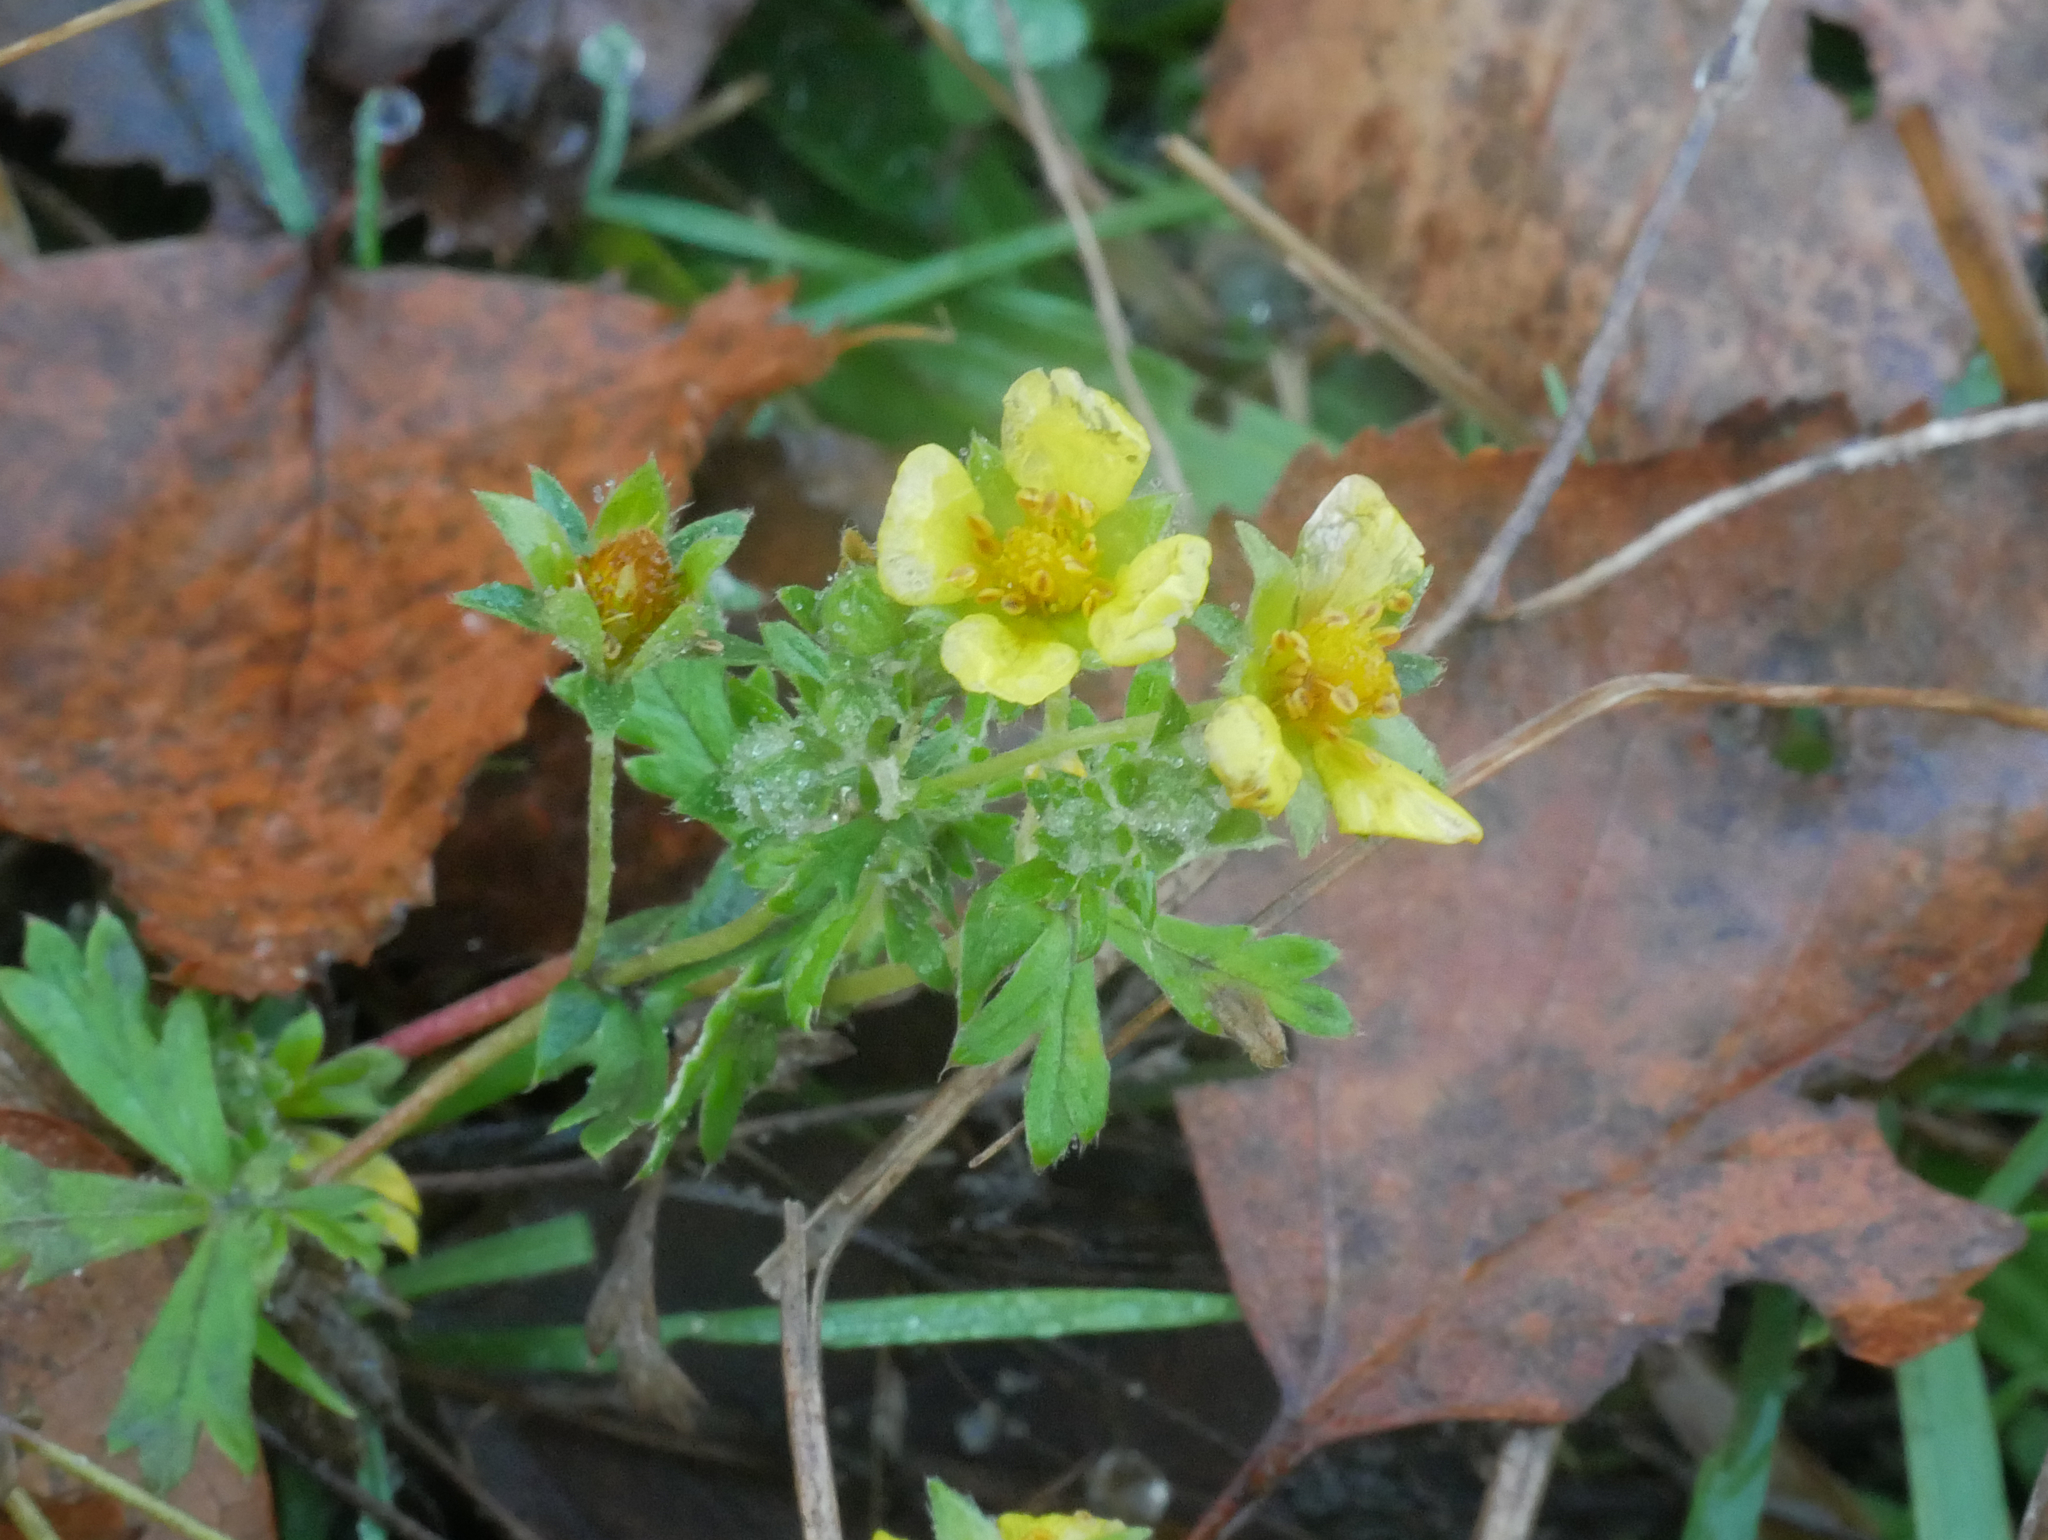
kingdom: Plantae
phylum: Tracheophyta
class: Magnoliopsida
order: Rosales
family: Rosaceae
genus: Potentilla
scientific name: Potentilla erecta
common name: Tormentil
